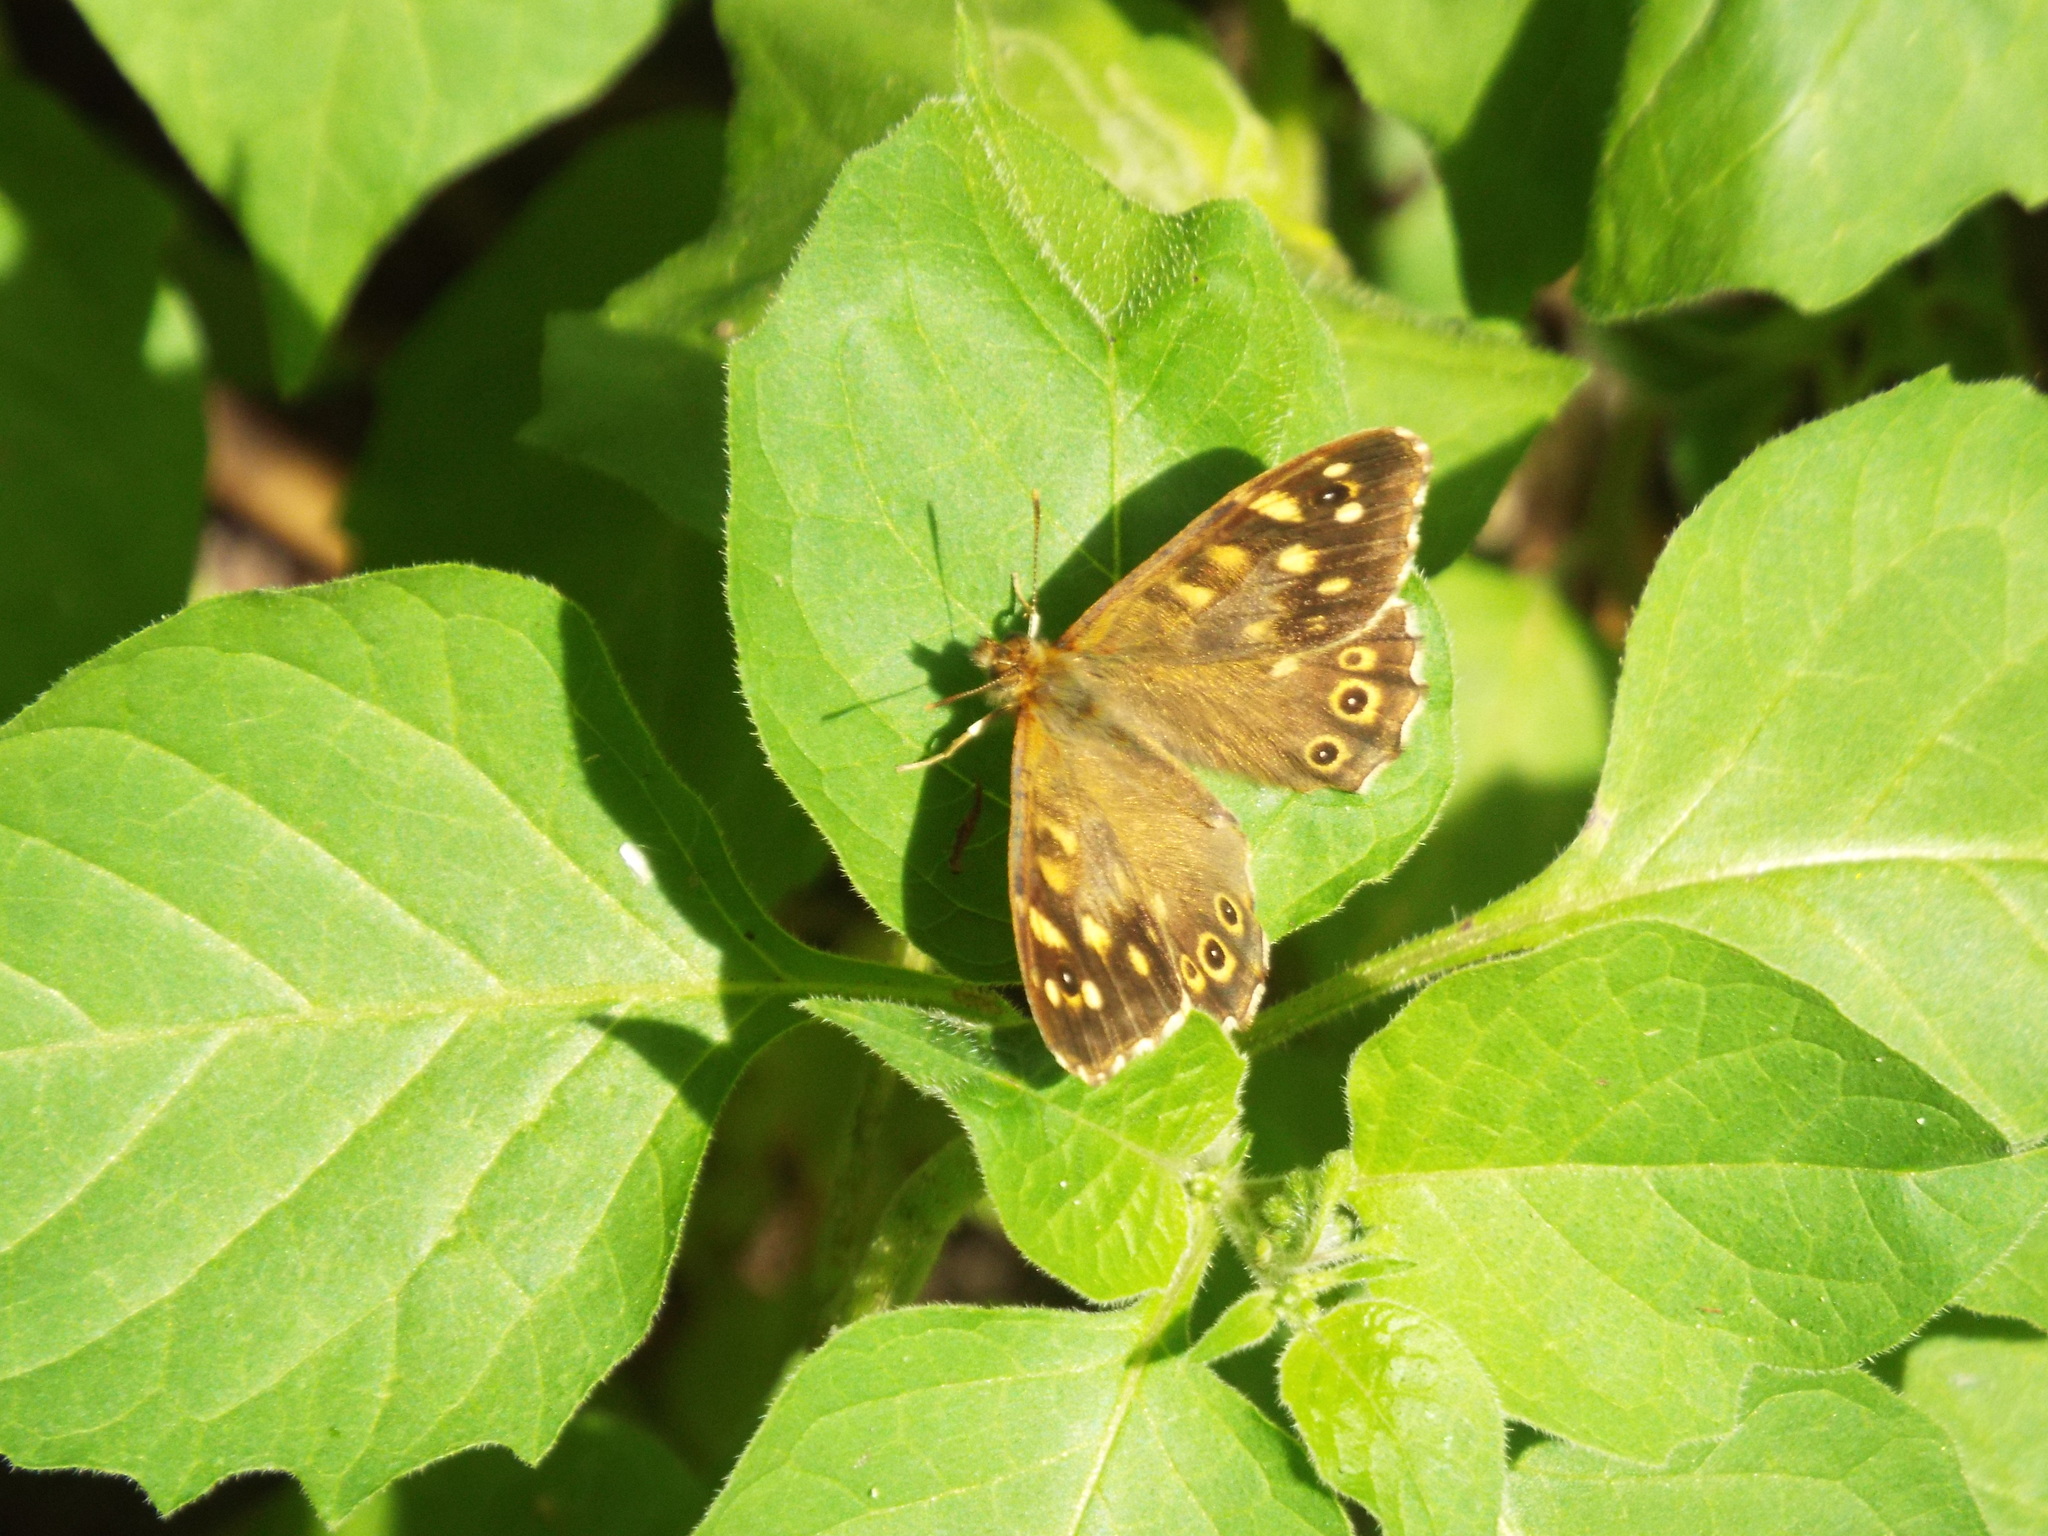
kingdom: Animalia
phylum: Arthropoda
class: Insecta
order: Lepidoptera
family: Nymphalidae
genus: Pararge
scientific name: Pararge aegeria
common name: Speckled wood
